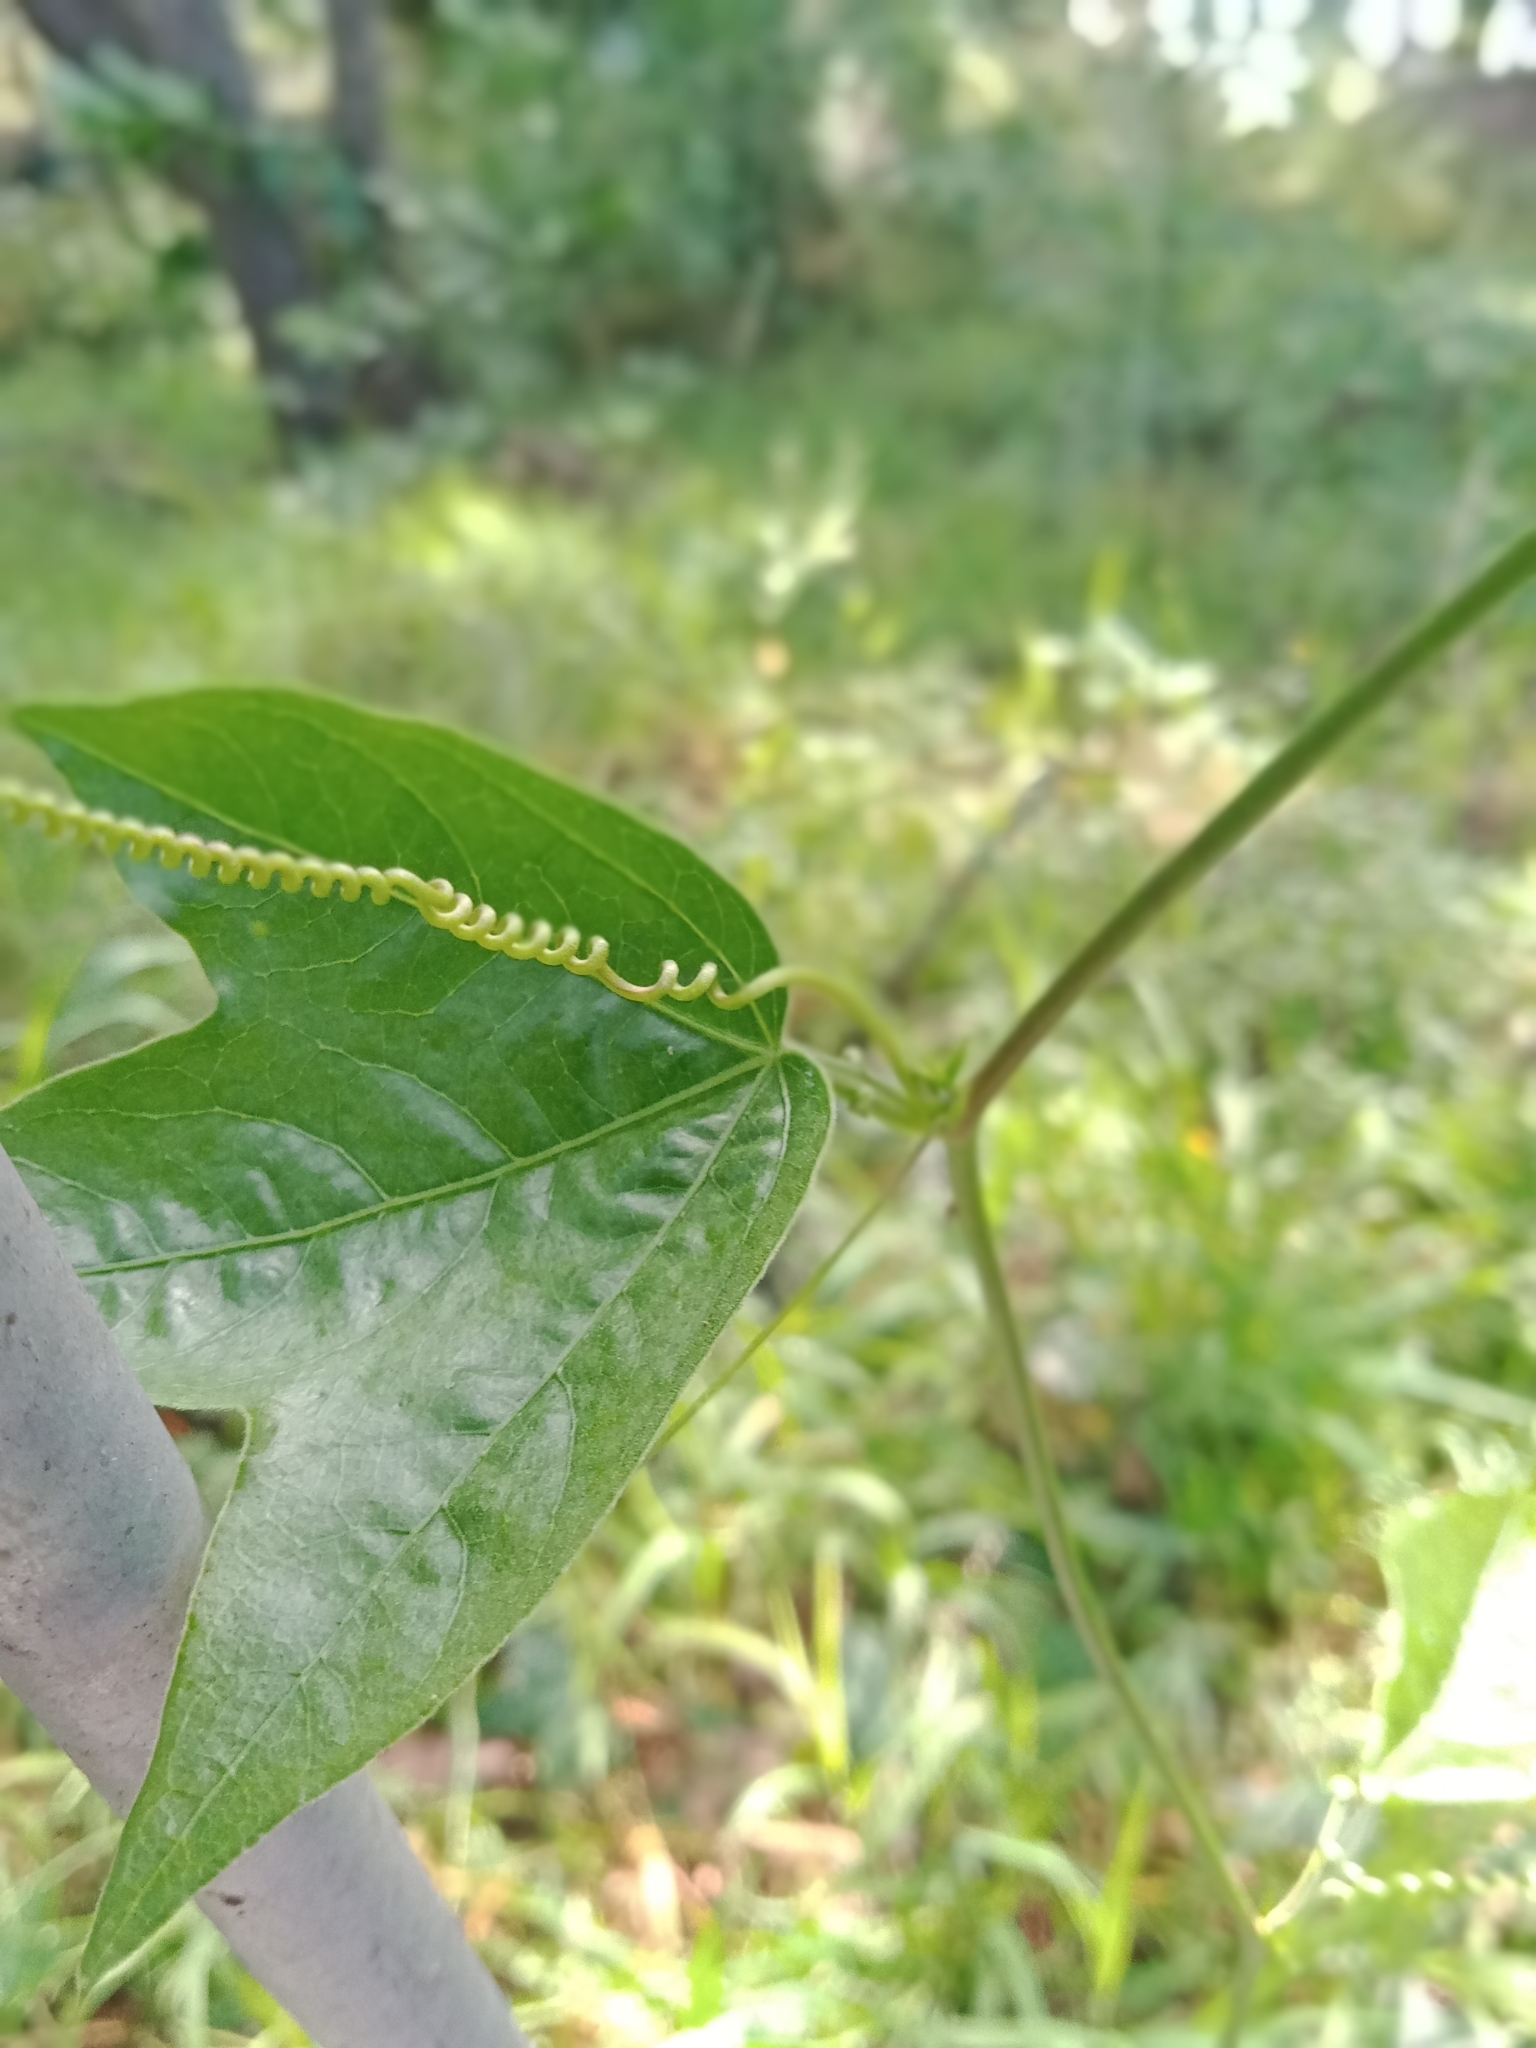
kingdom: Plantae
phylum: Tracheophyta
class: Magnoliopsida
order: Malpighiales
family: Passifloraceae
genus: Passiflora
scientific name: Passiflora suberosa
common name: Wild passionfruit
